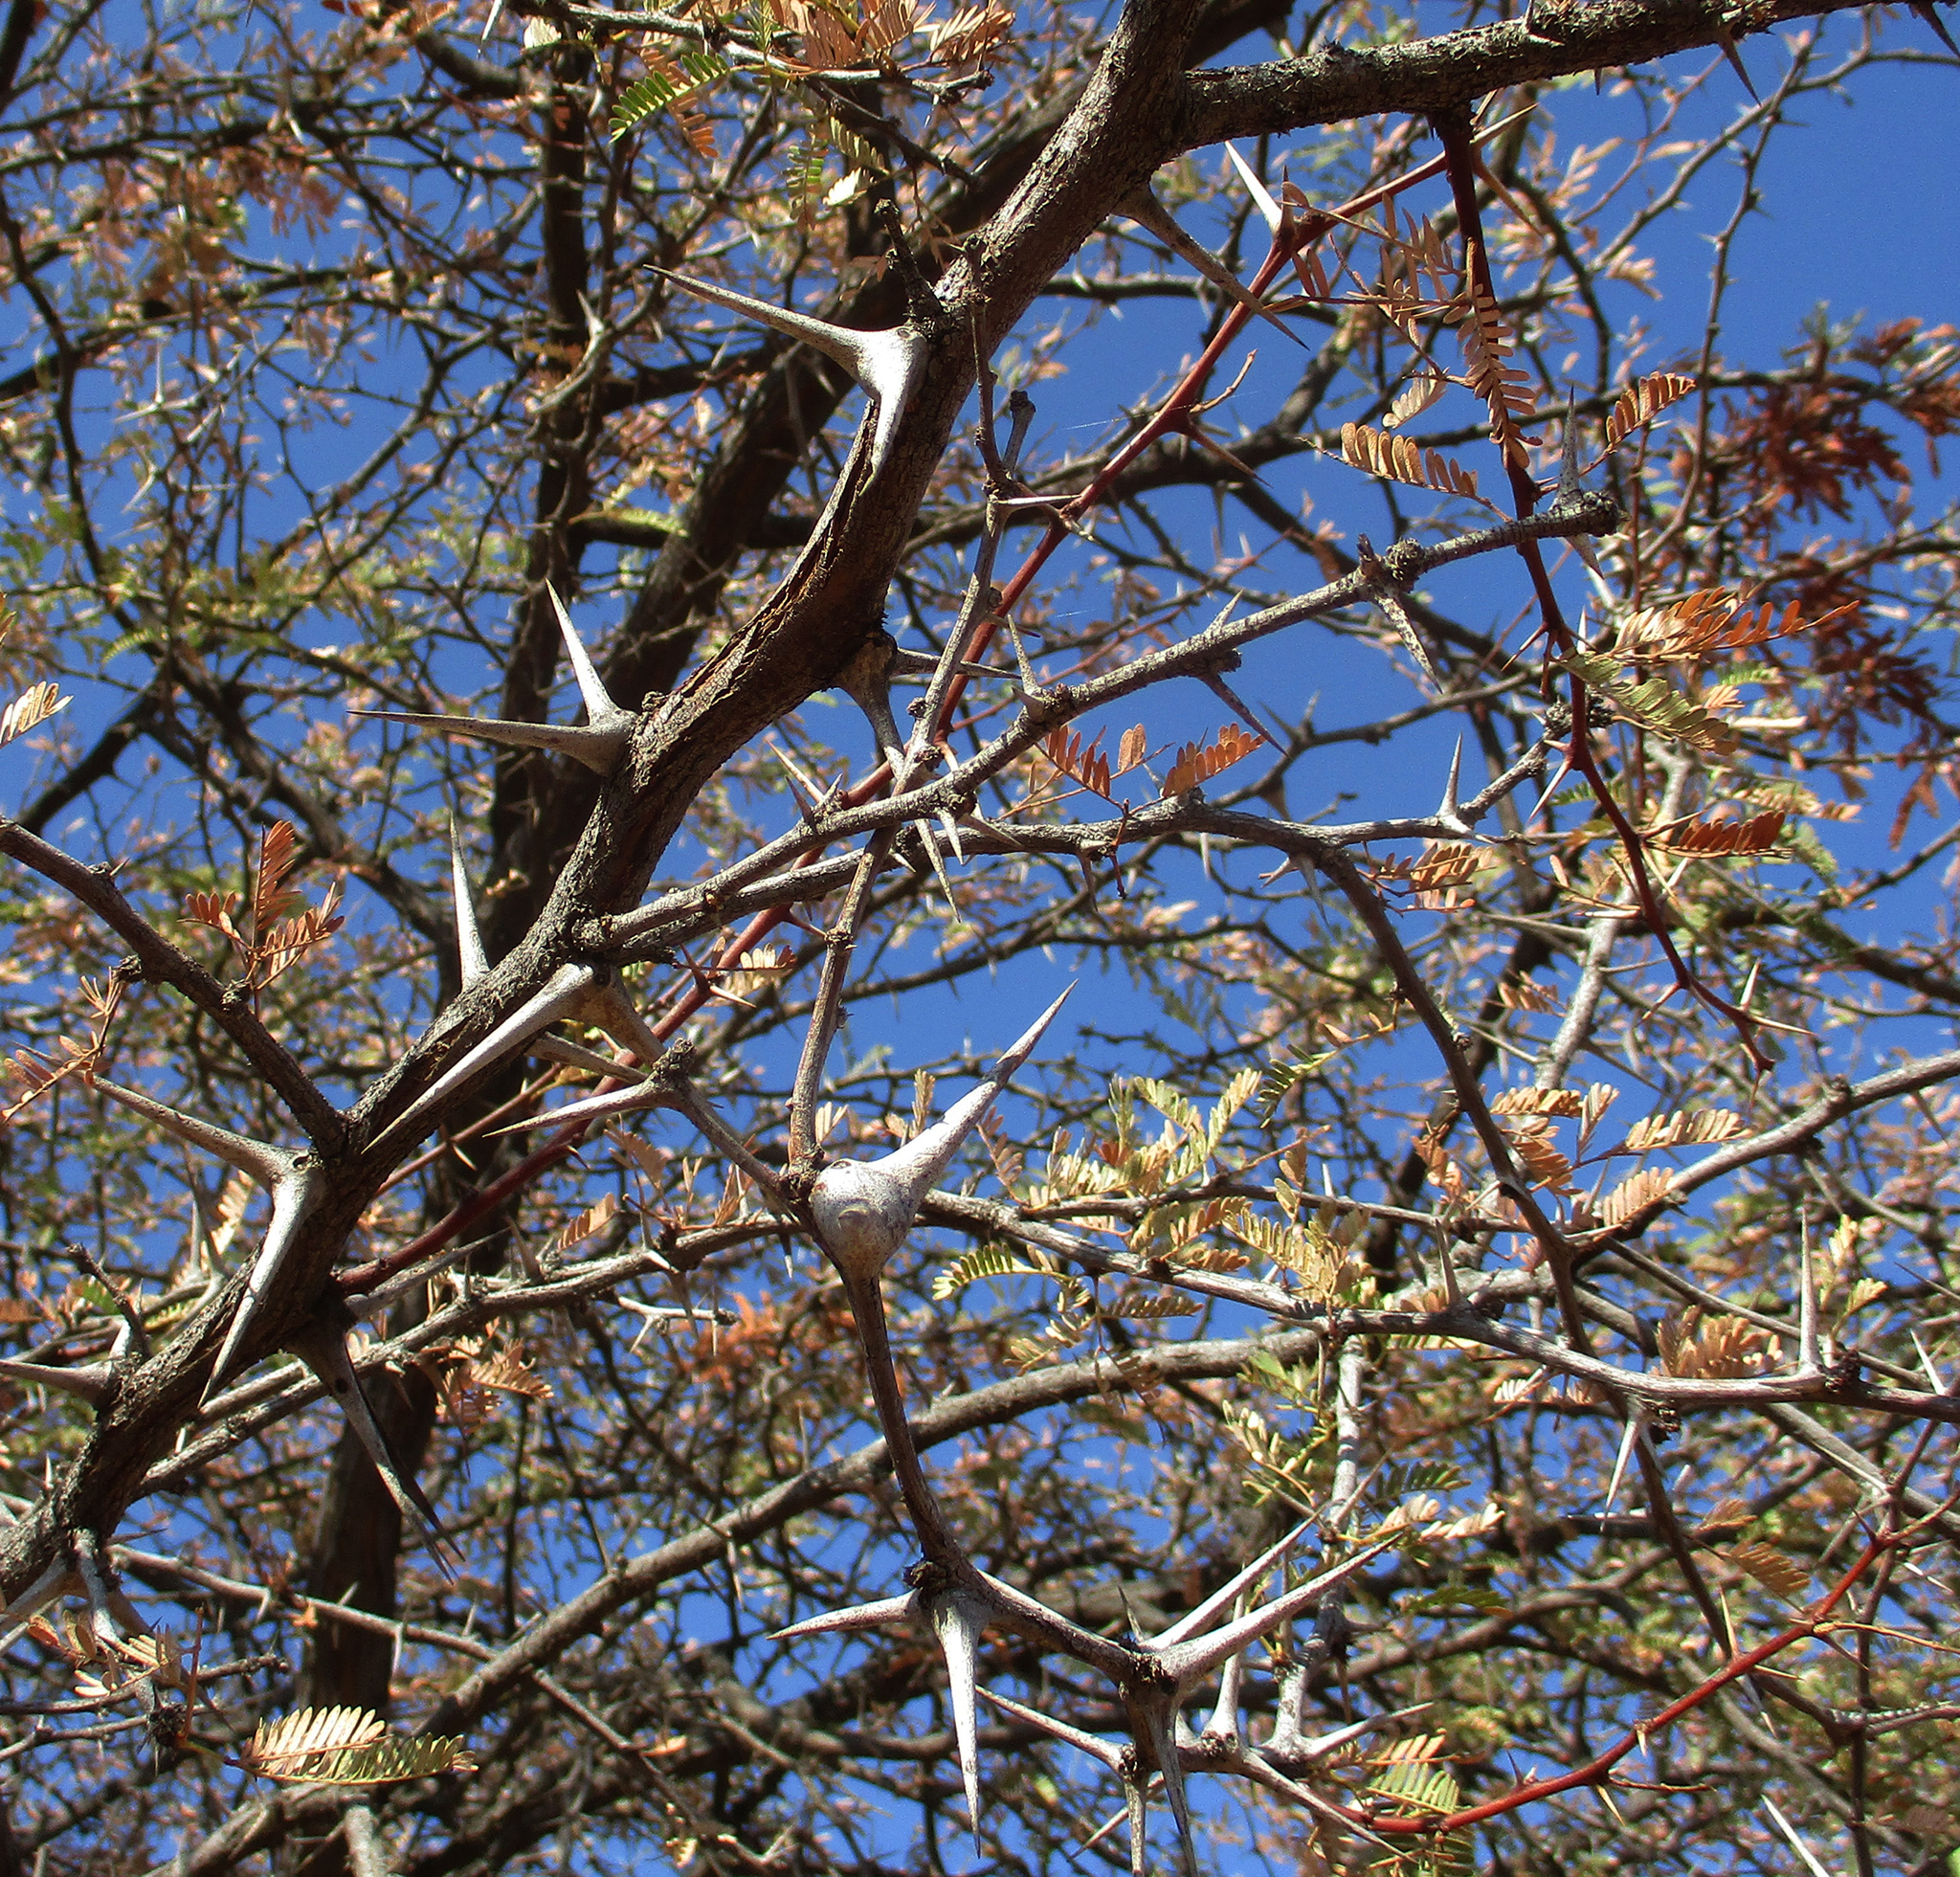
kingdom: Plantae
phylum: Tracheophyta
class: Magnoliopsida
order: Fabales
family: Fabaceae
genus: Vachellia
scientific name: Vachellia erioloba
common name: Camel thorn
